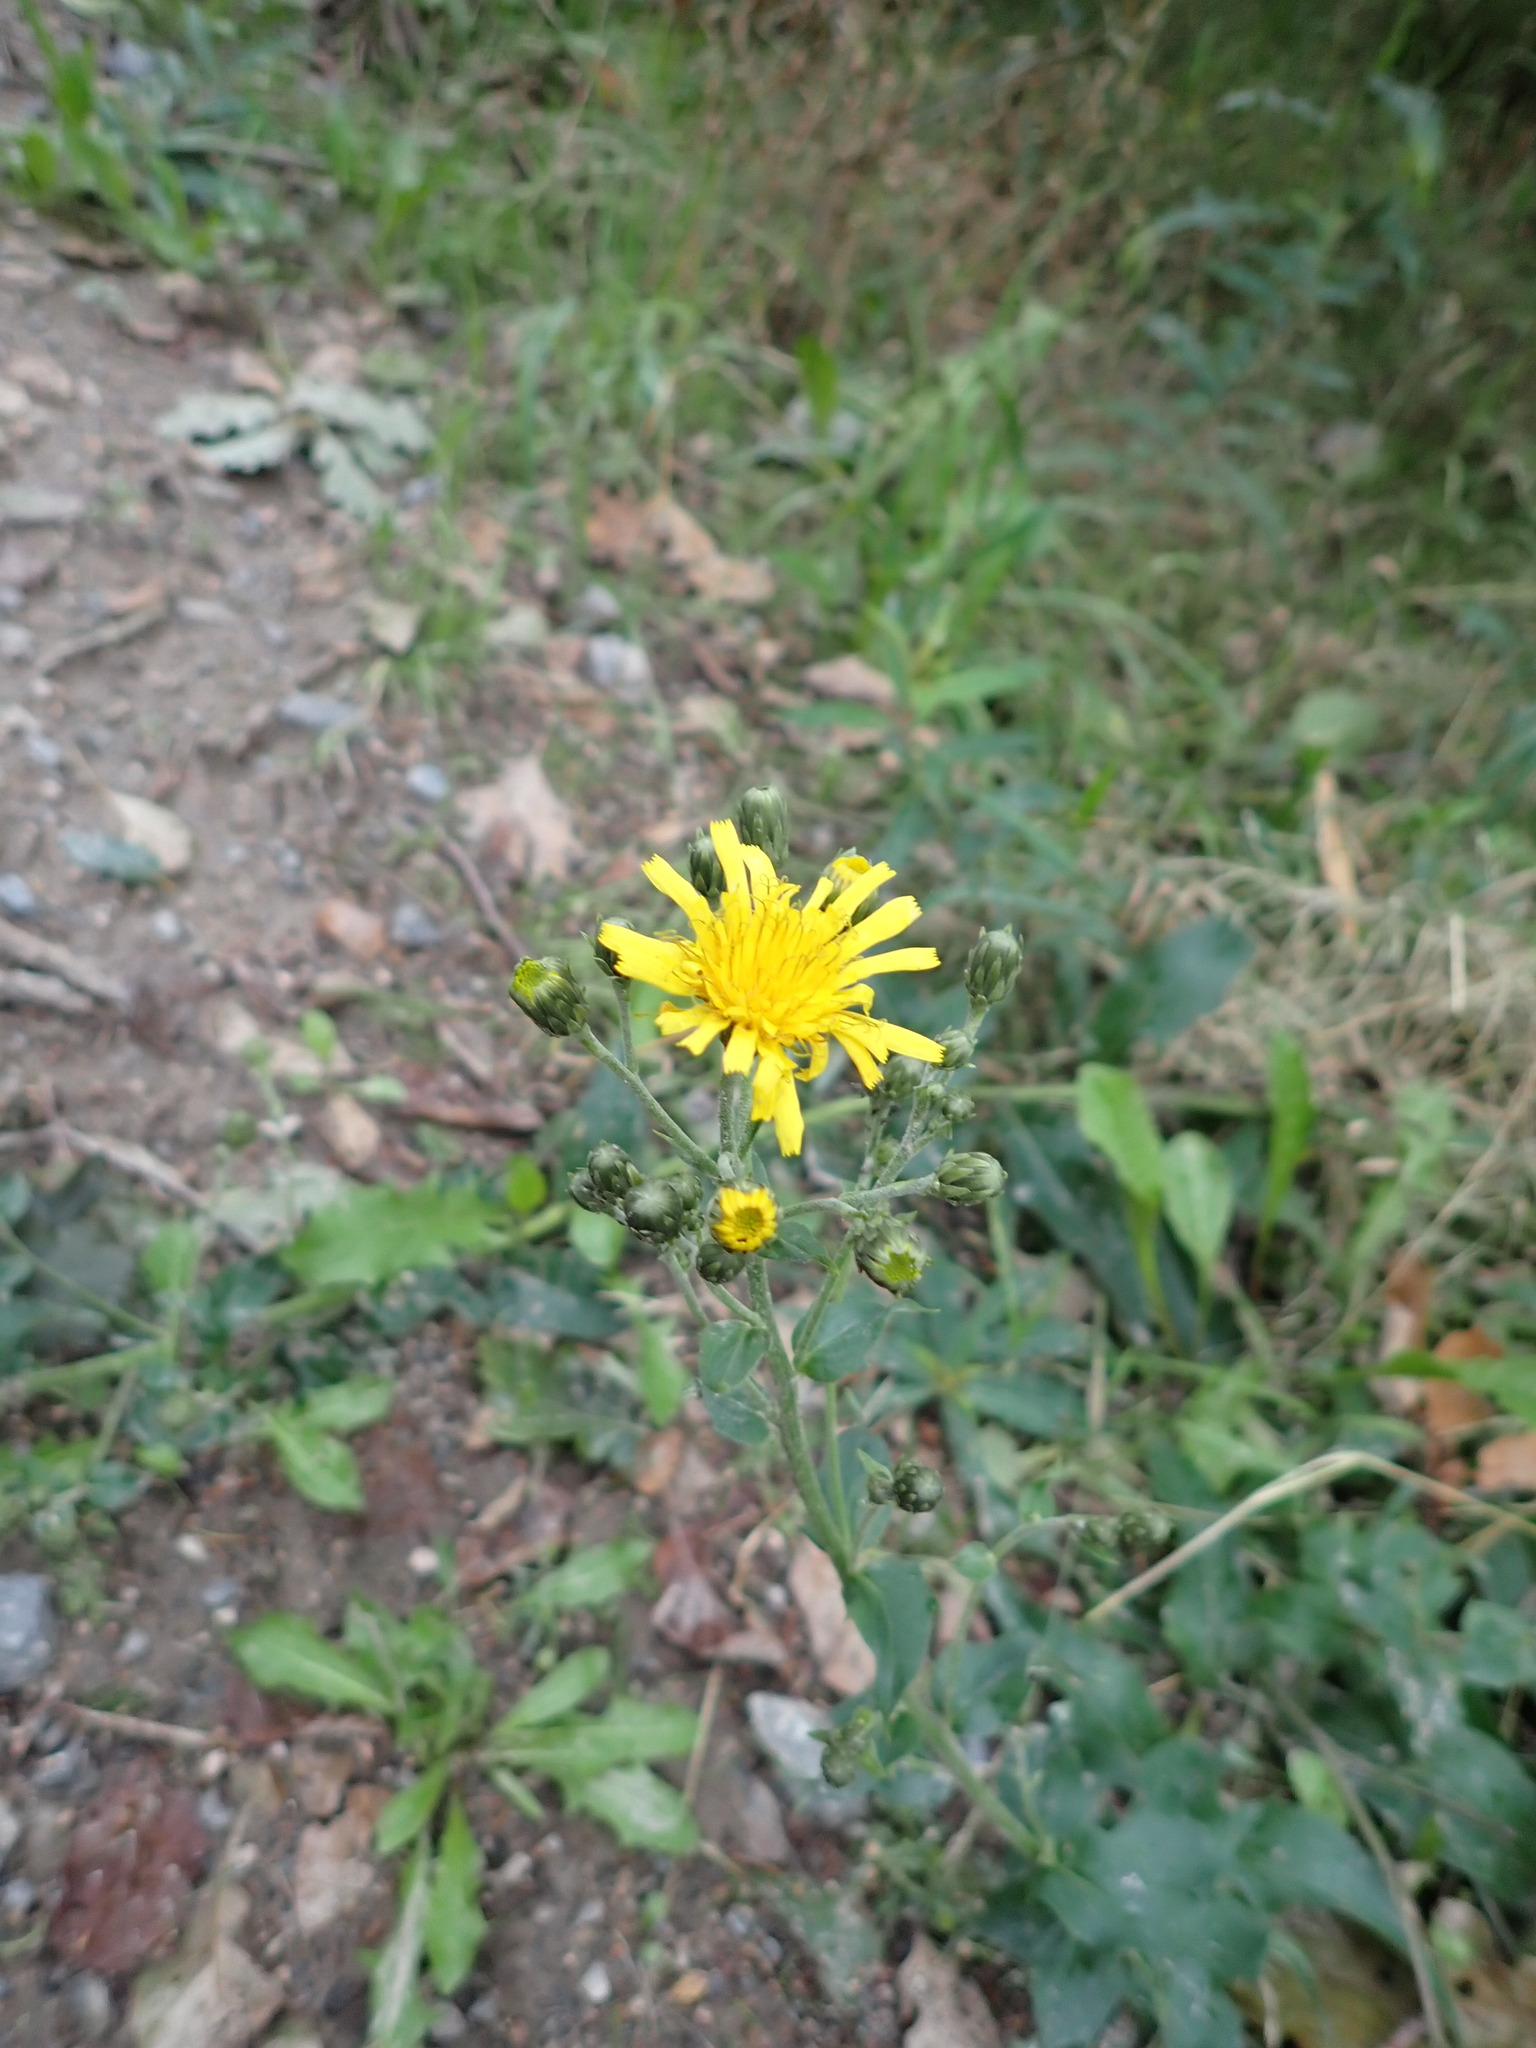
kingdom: Plantae
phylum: Tracheophyta
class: Magnoliopsida
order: Asterales
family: Asteraceae
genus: Hieracium
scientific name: Hieracium sabaudum
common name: New england hawkweed
